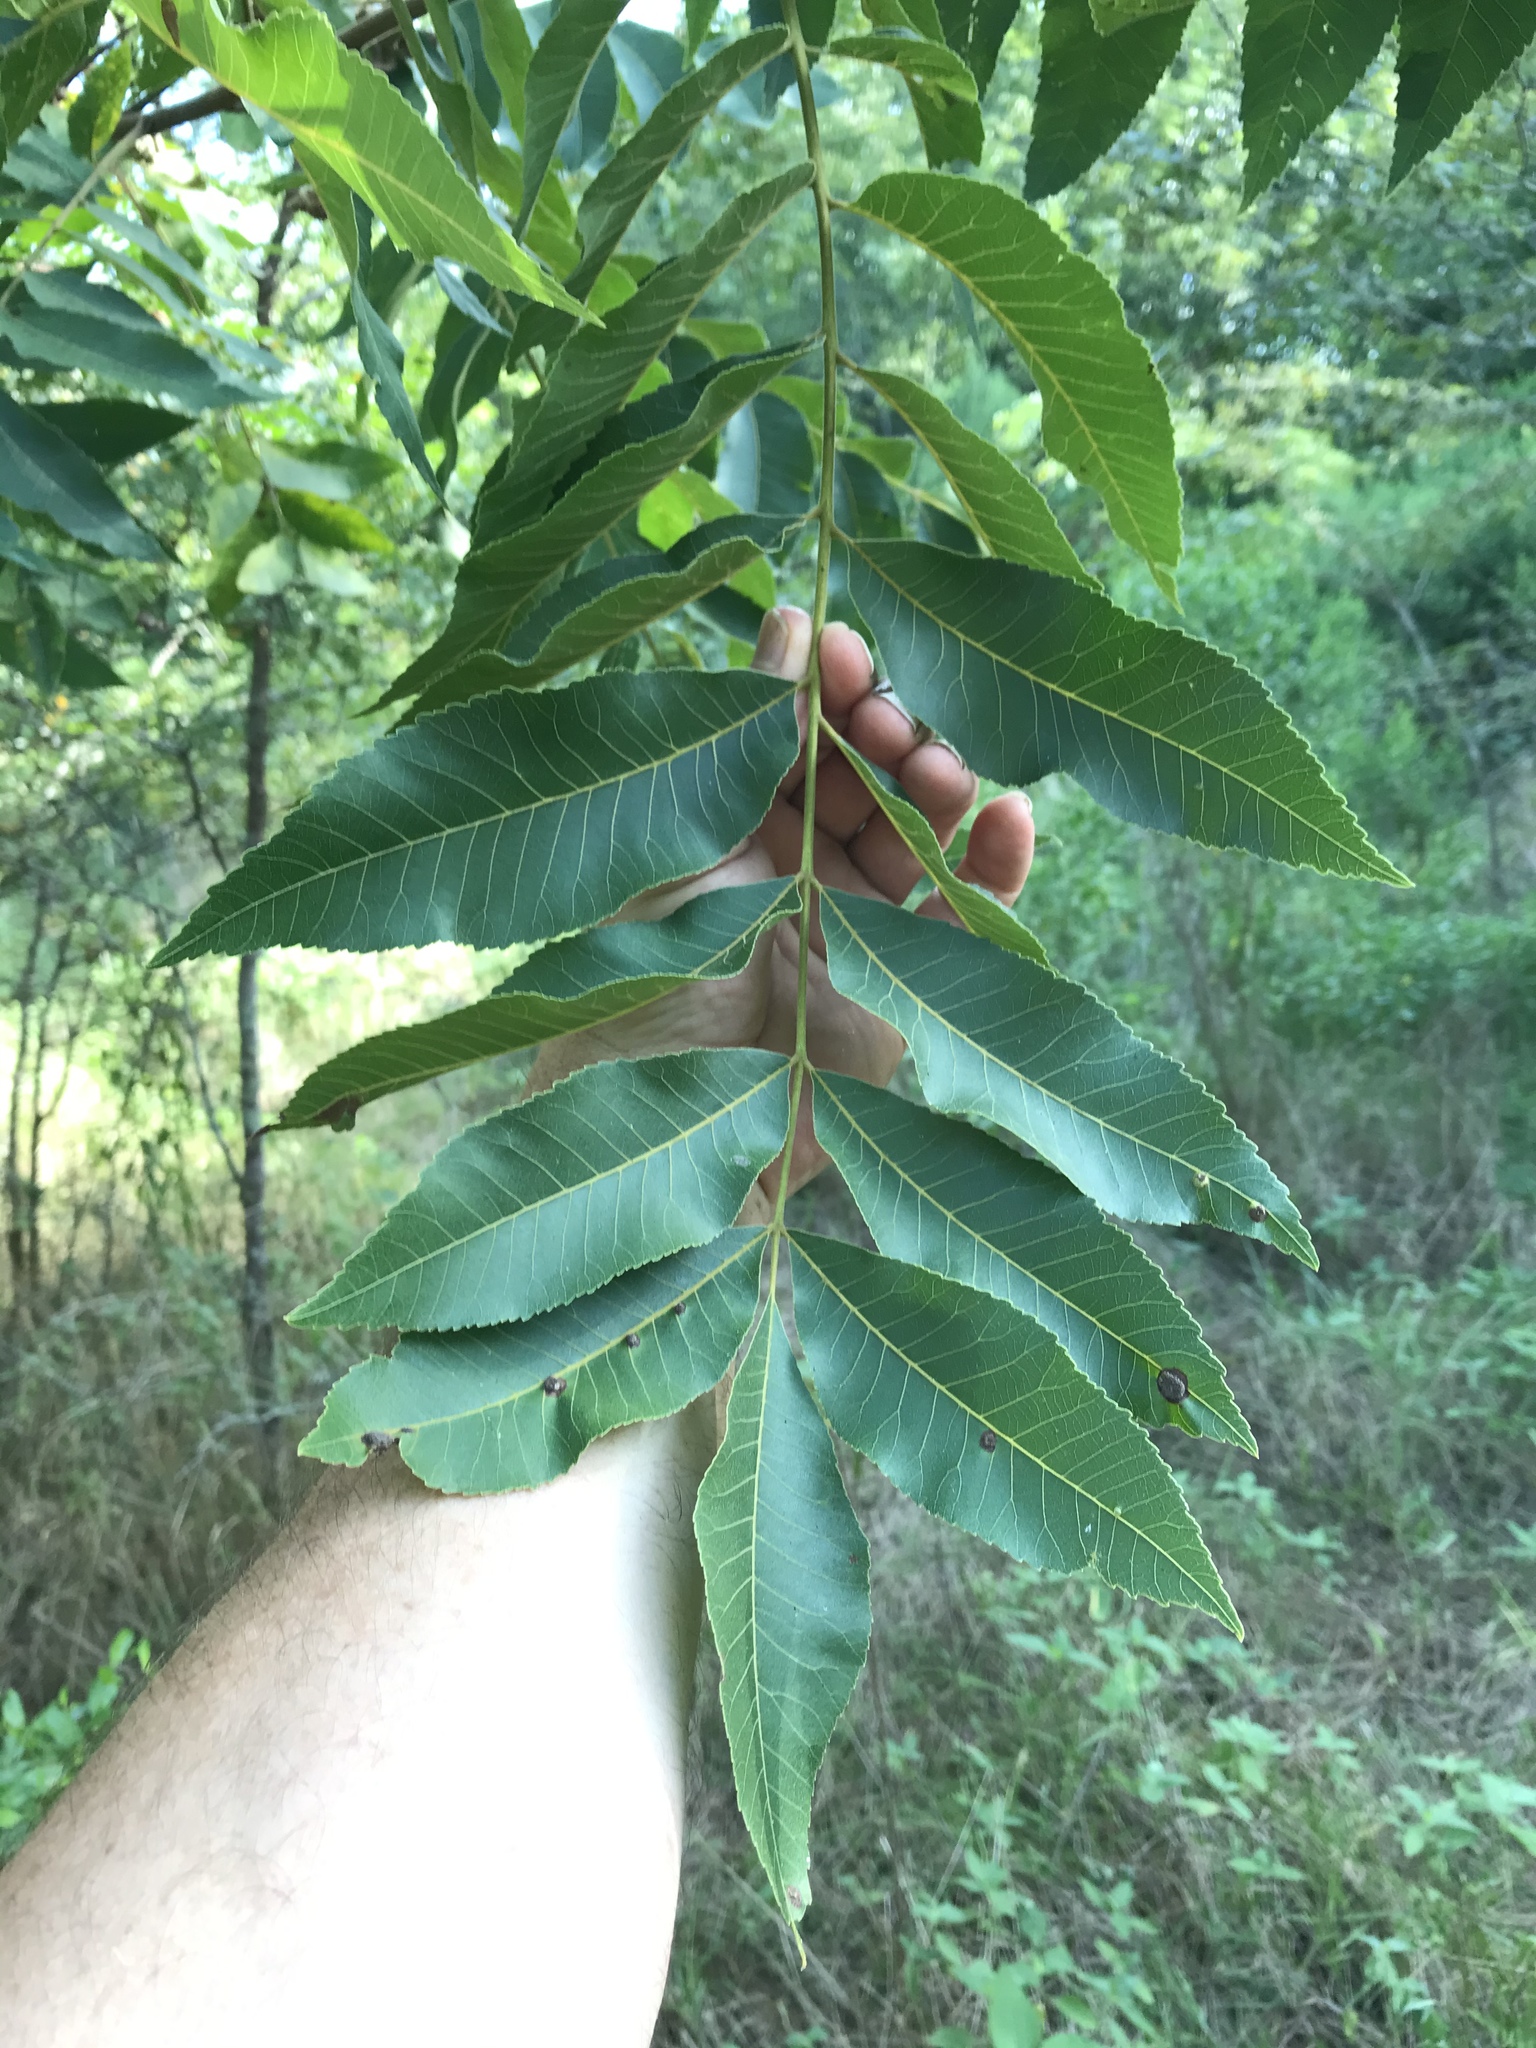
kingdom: Plantae
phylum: Tracheophyta
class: Magnoliopsida
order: Fagales
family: Juglandaceae
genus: Carya
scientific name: Carya illinoinensis
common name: Pecan
